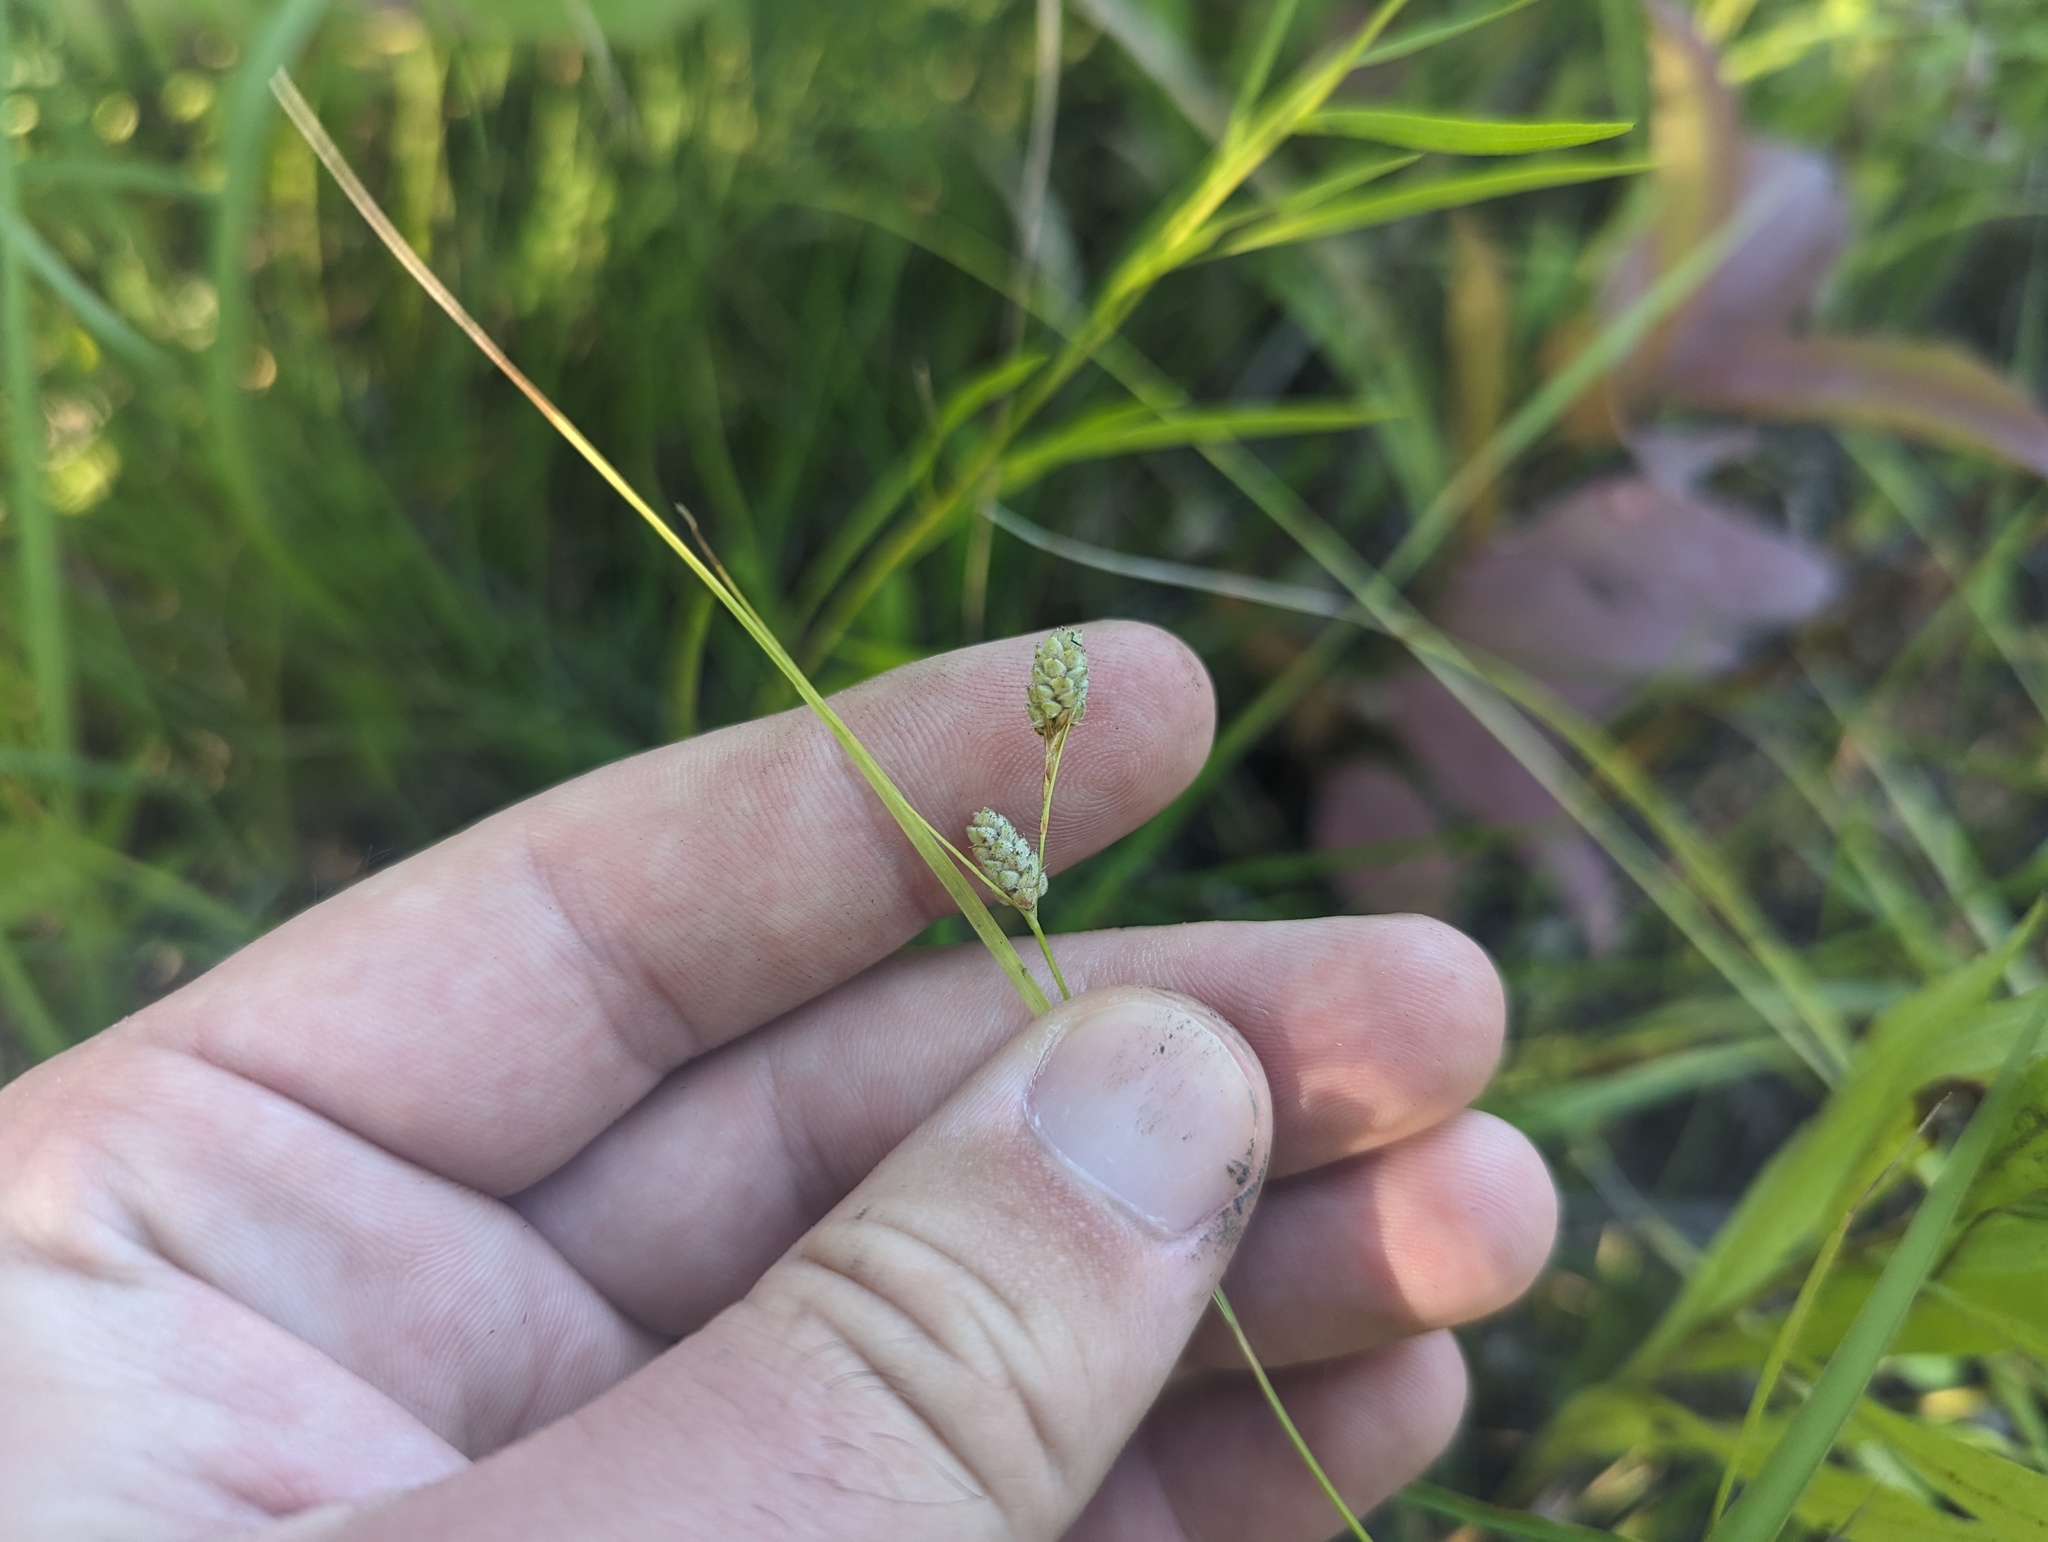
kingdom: Plantae
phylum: Tracheophyta
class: Liliopsida
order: Poales
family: Cyperaceae
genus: Carex
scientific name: Carex swanii
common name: Downy green sedge
